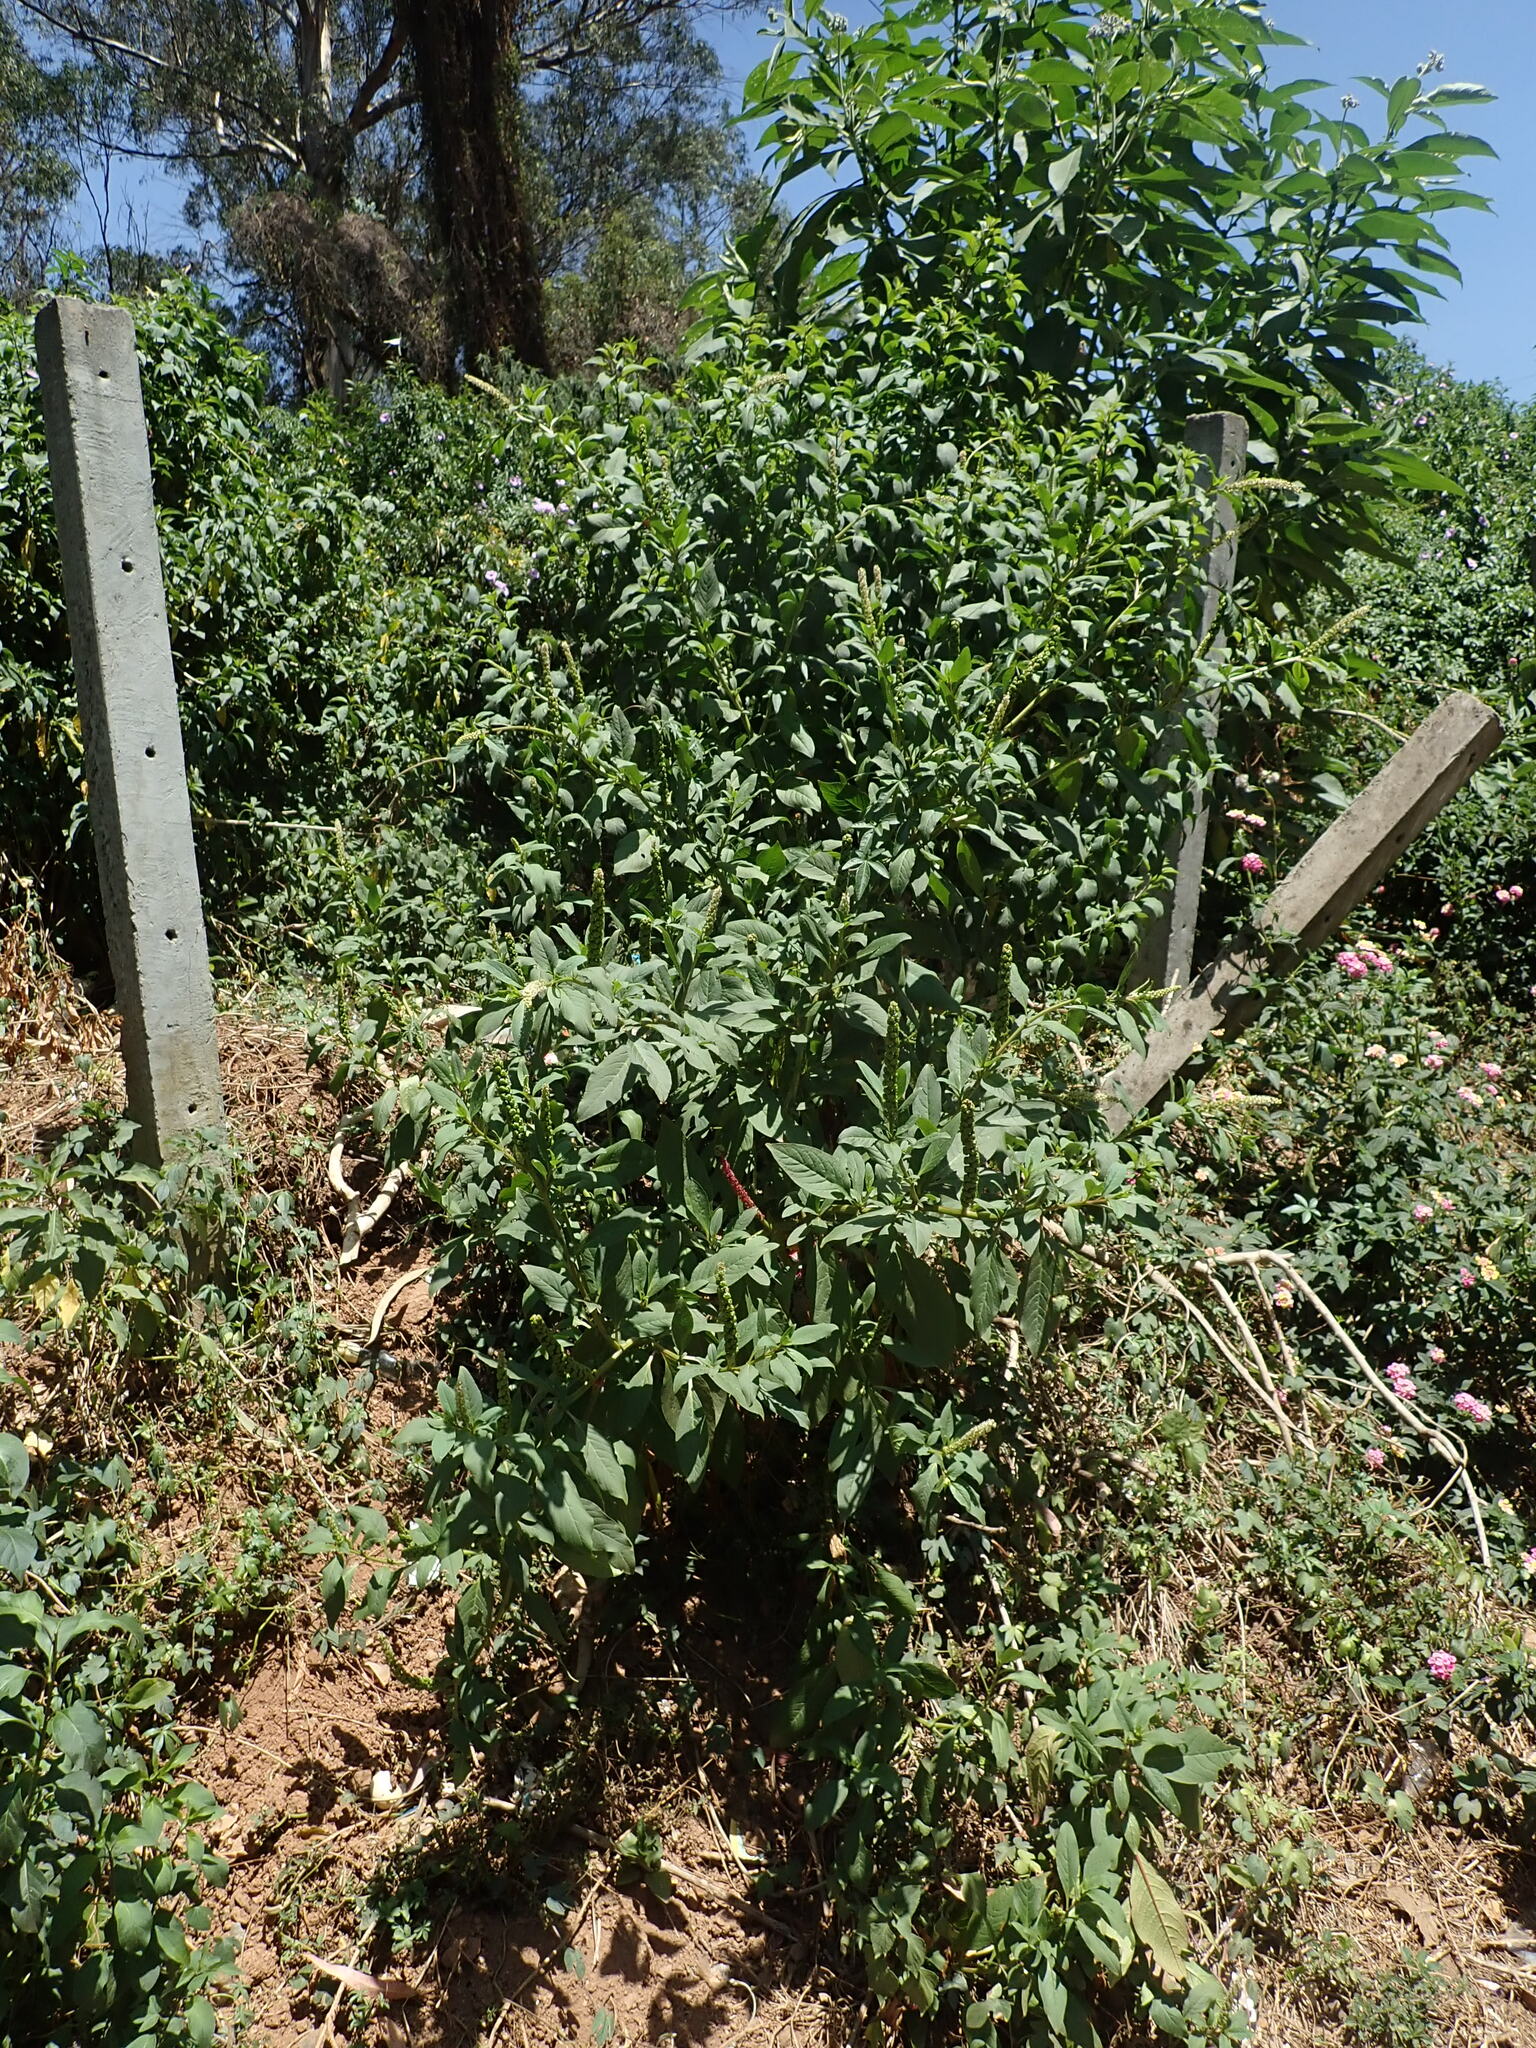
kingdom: Plantae
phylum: Tracheophyta
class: Magnoliopsida
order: Caryophyllales
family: Phytolaccaceae
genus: Phytolacca
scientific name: Phytolacca icosandra
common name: Button pokeweed
